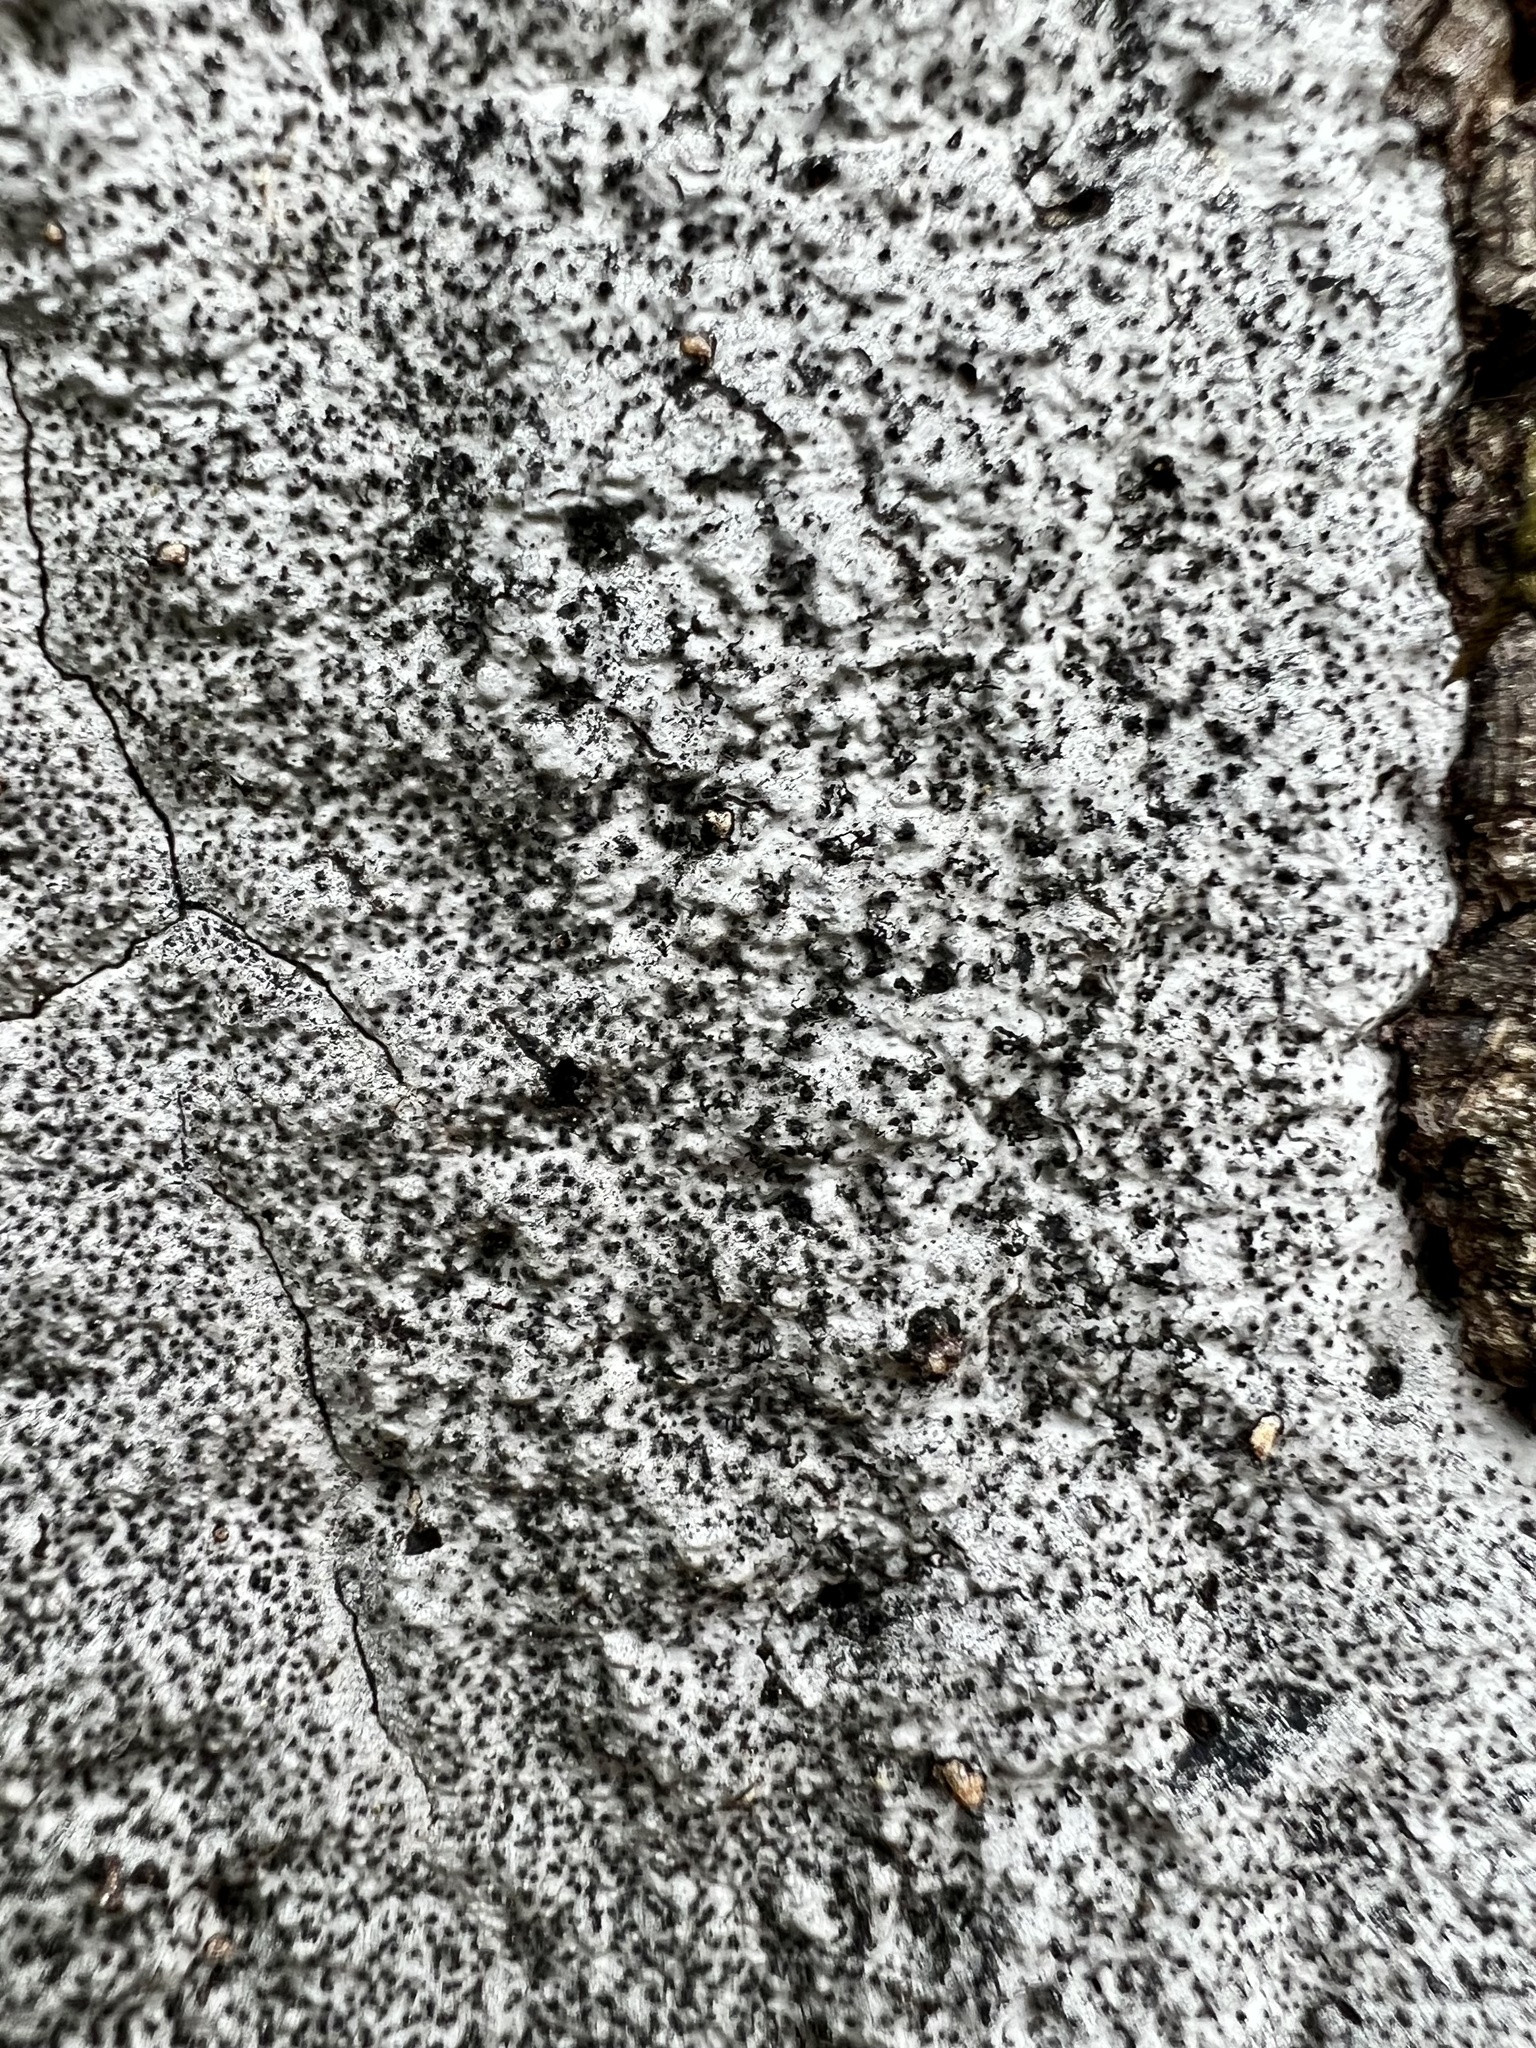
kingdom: Fungi
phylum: Ascomycota
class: Sordariomycetes
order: Xylariales
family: Graphostromataceae
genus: Biscogniauxia
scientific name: Biscogniauxia atropunctata
